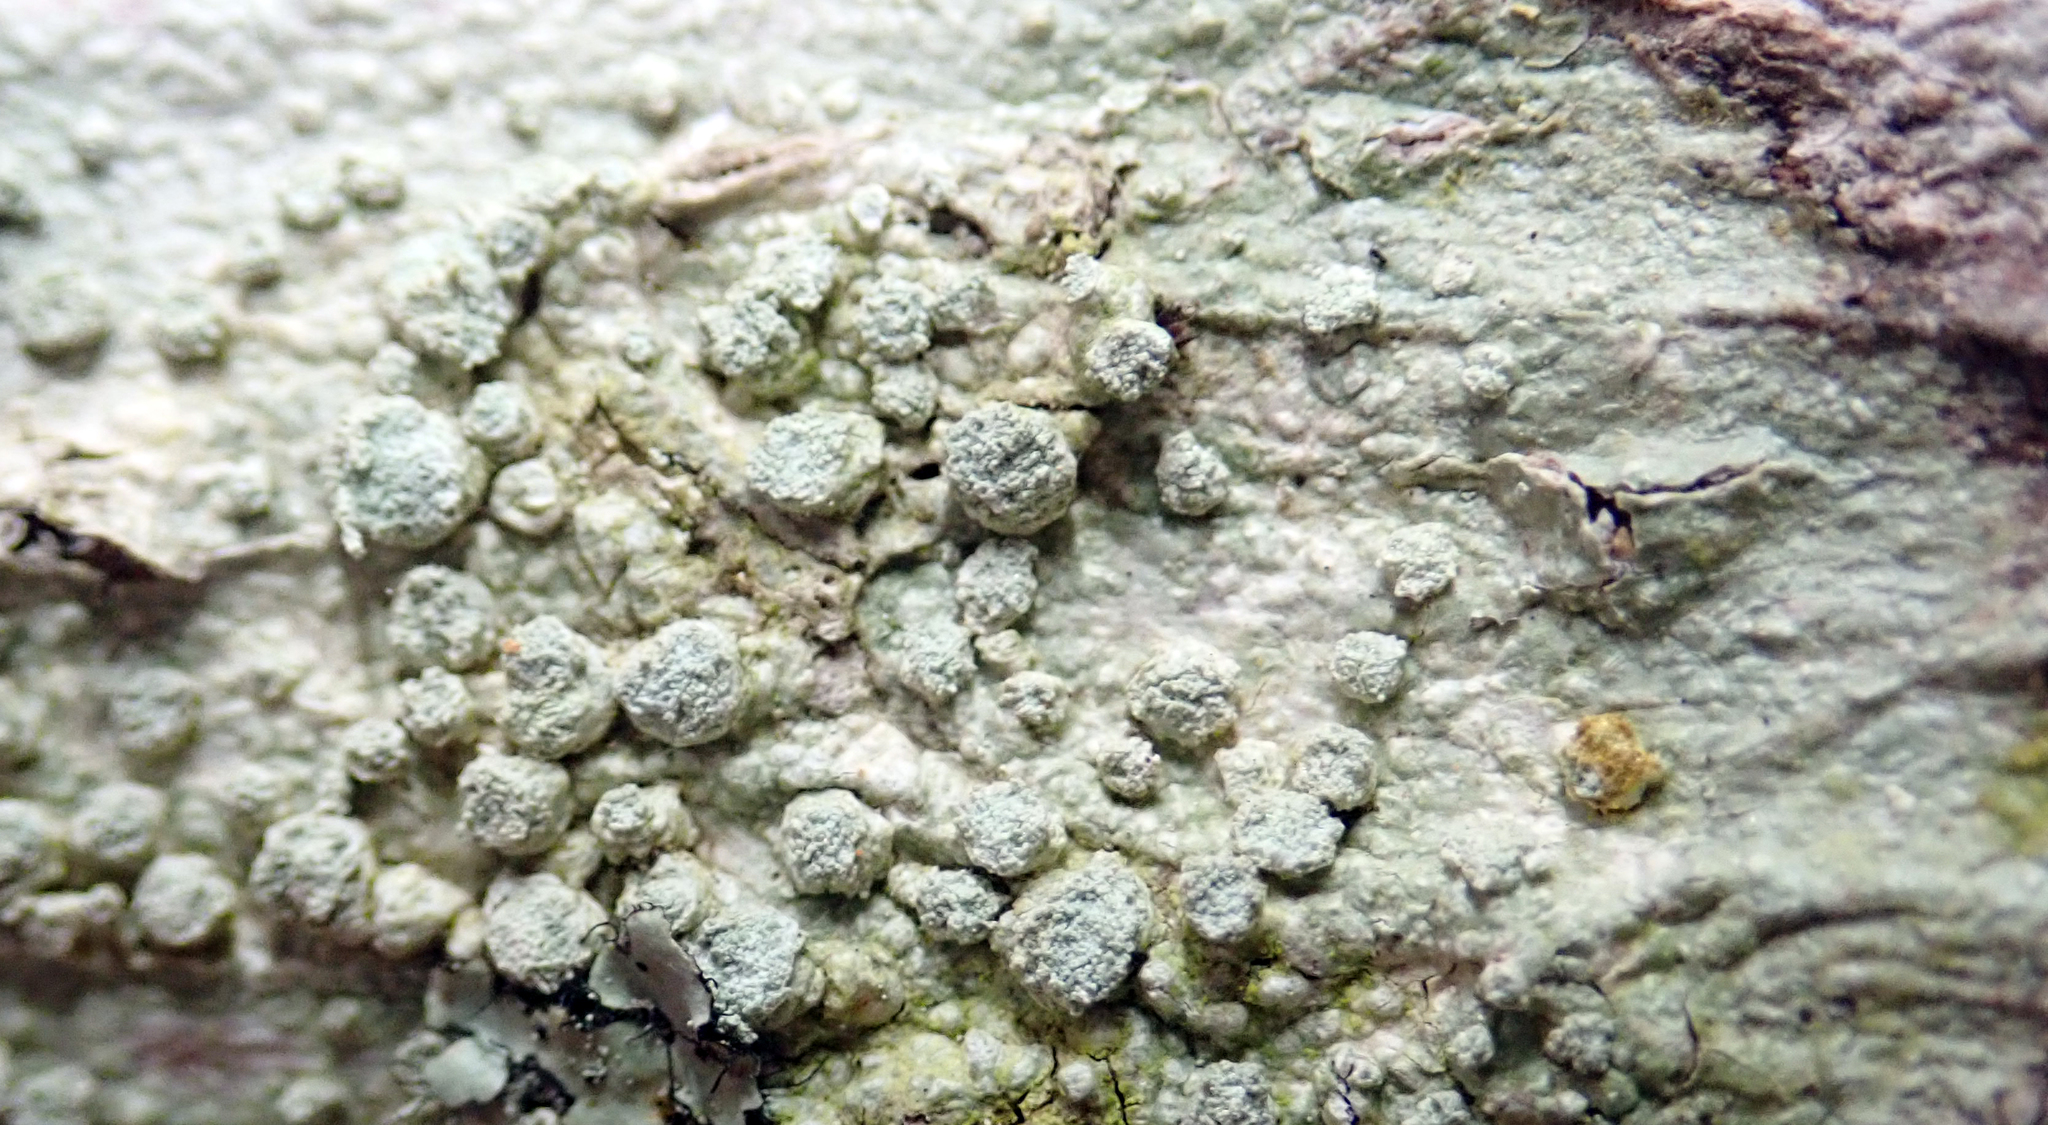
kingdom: Fungi
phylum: Ascomycota
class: Lecanoromycetes
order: Pertusariales
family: Pertusariaceae
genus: Pertusaria
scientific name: Pertusaria puffina
